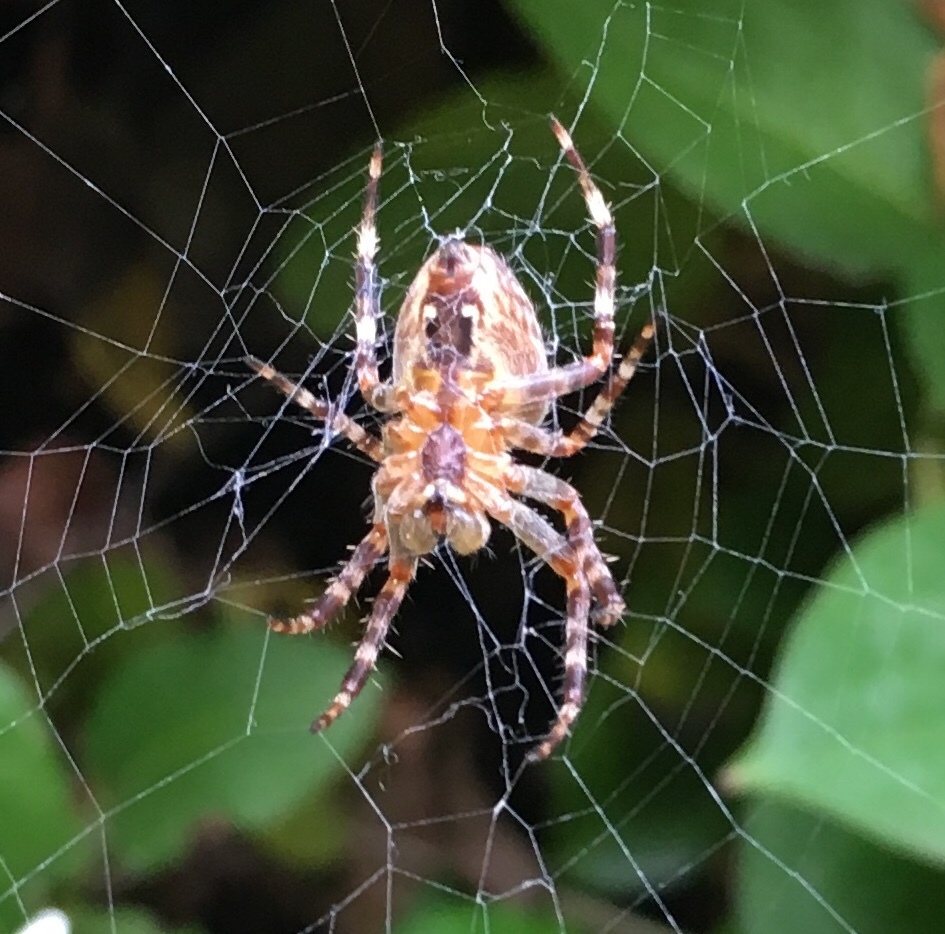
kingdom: Animalia
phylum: Arthropoda
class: Arachnida
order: Araneae
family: Araneidae
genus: Araneus
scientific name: Araneus diadematus
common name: Cross orbweaver
